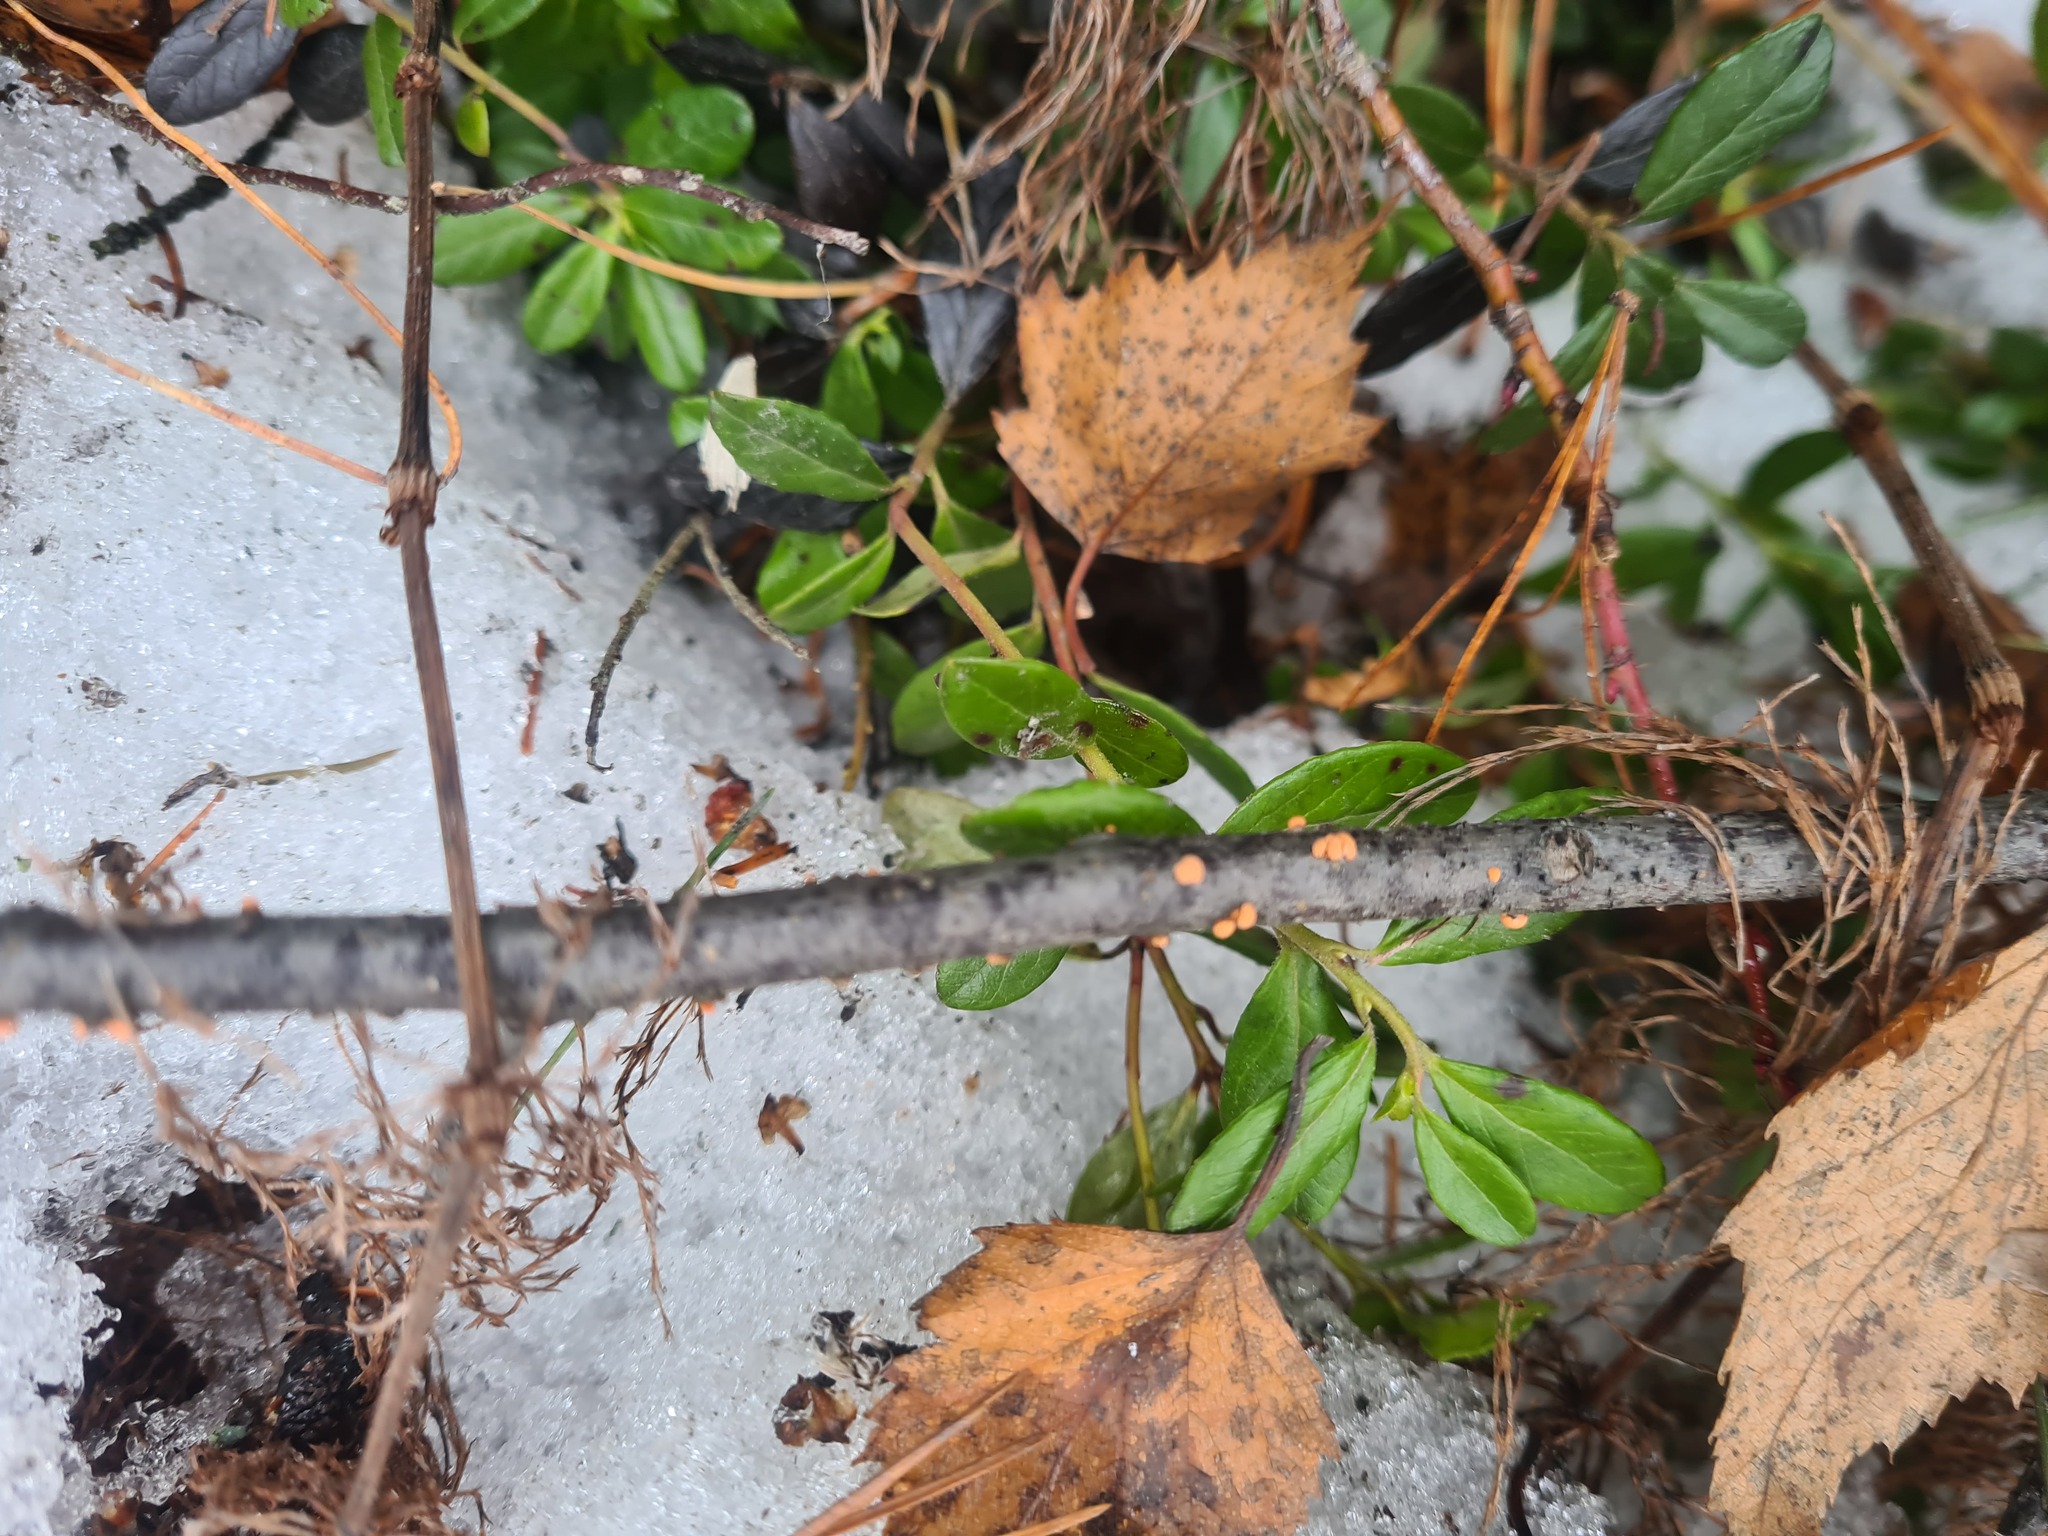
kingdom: Fungi
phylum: Ascomycota
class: Sordariomycetes
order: Hypocreales
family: Nectriaceae
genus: Nectria
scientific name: Nectria cinnabarina
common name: Coral spot
